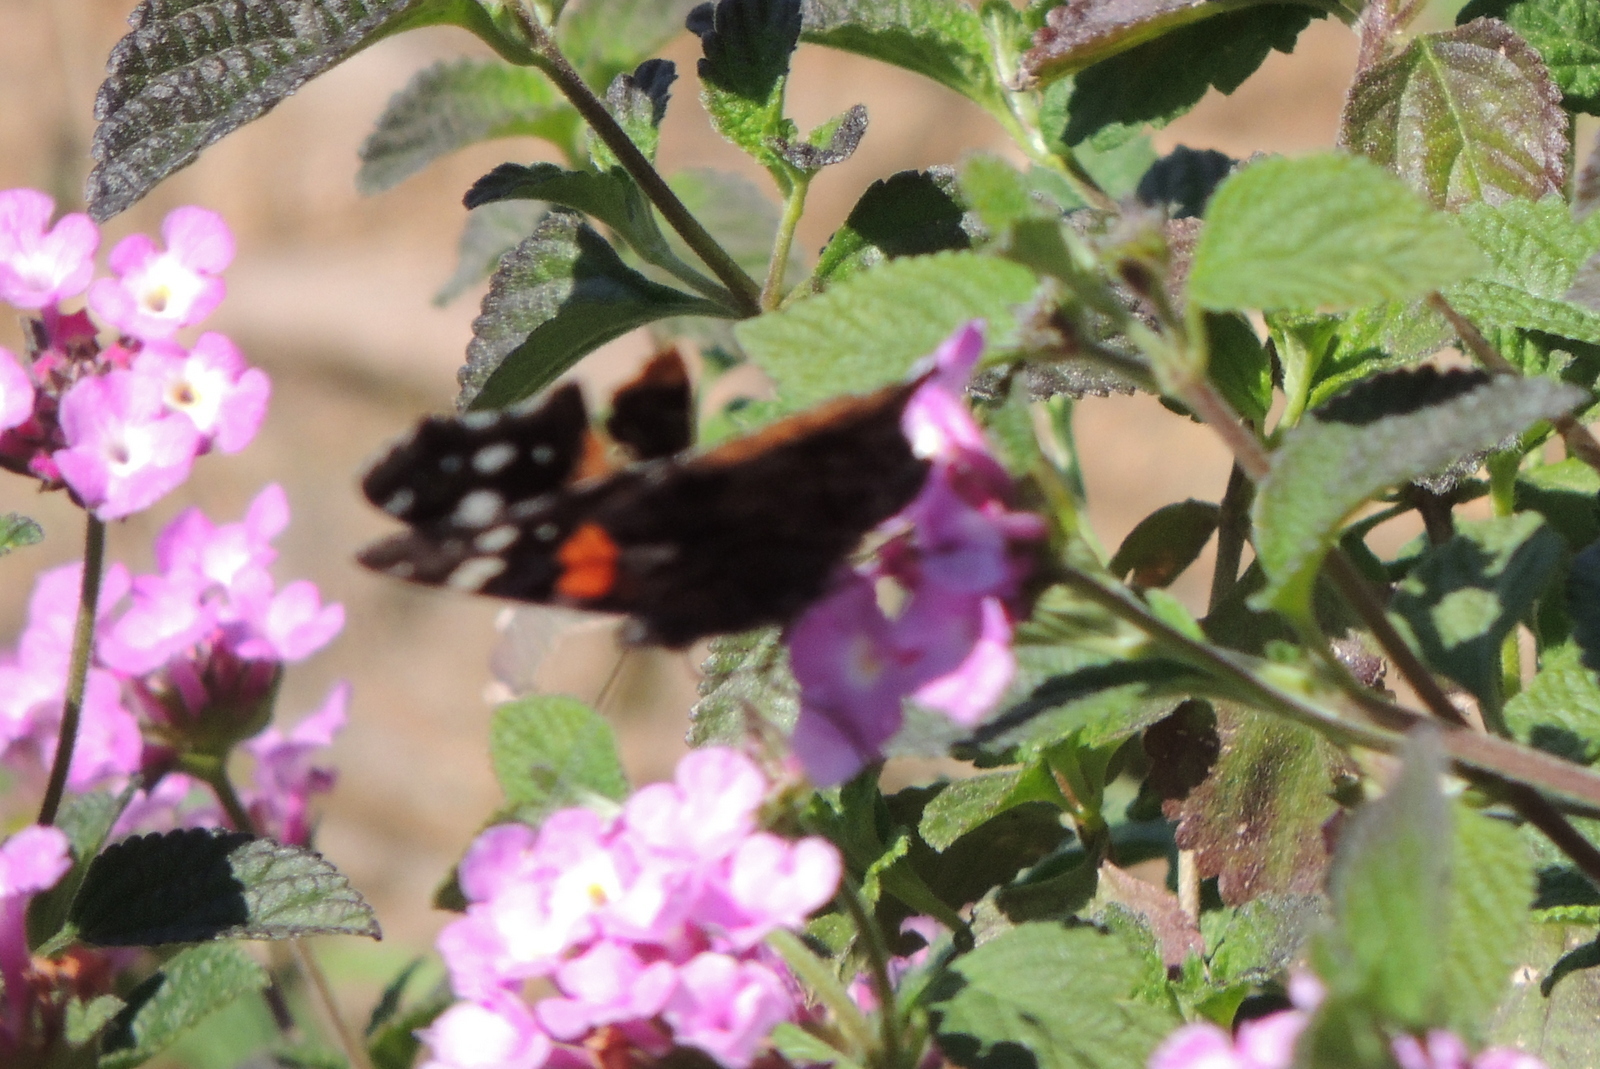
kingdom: Animalia
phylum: Arthropoda
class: Insecta
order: Lepidoptera
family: Nymphalidae
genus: Vanessa
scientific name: Vanessa atalanta
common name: Red admiral
